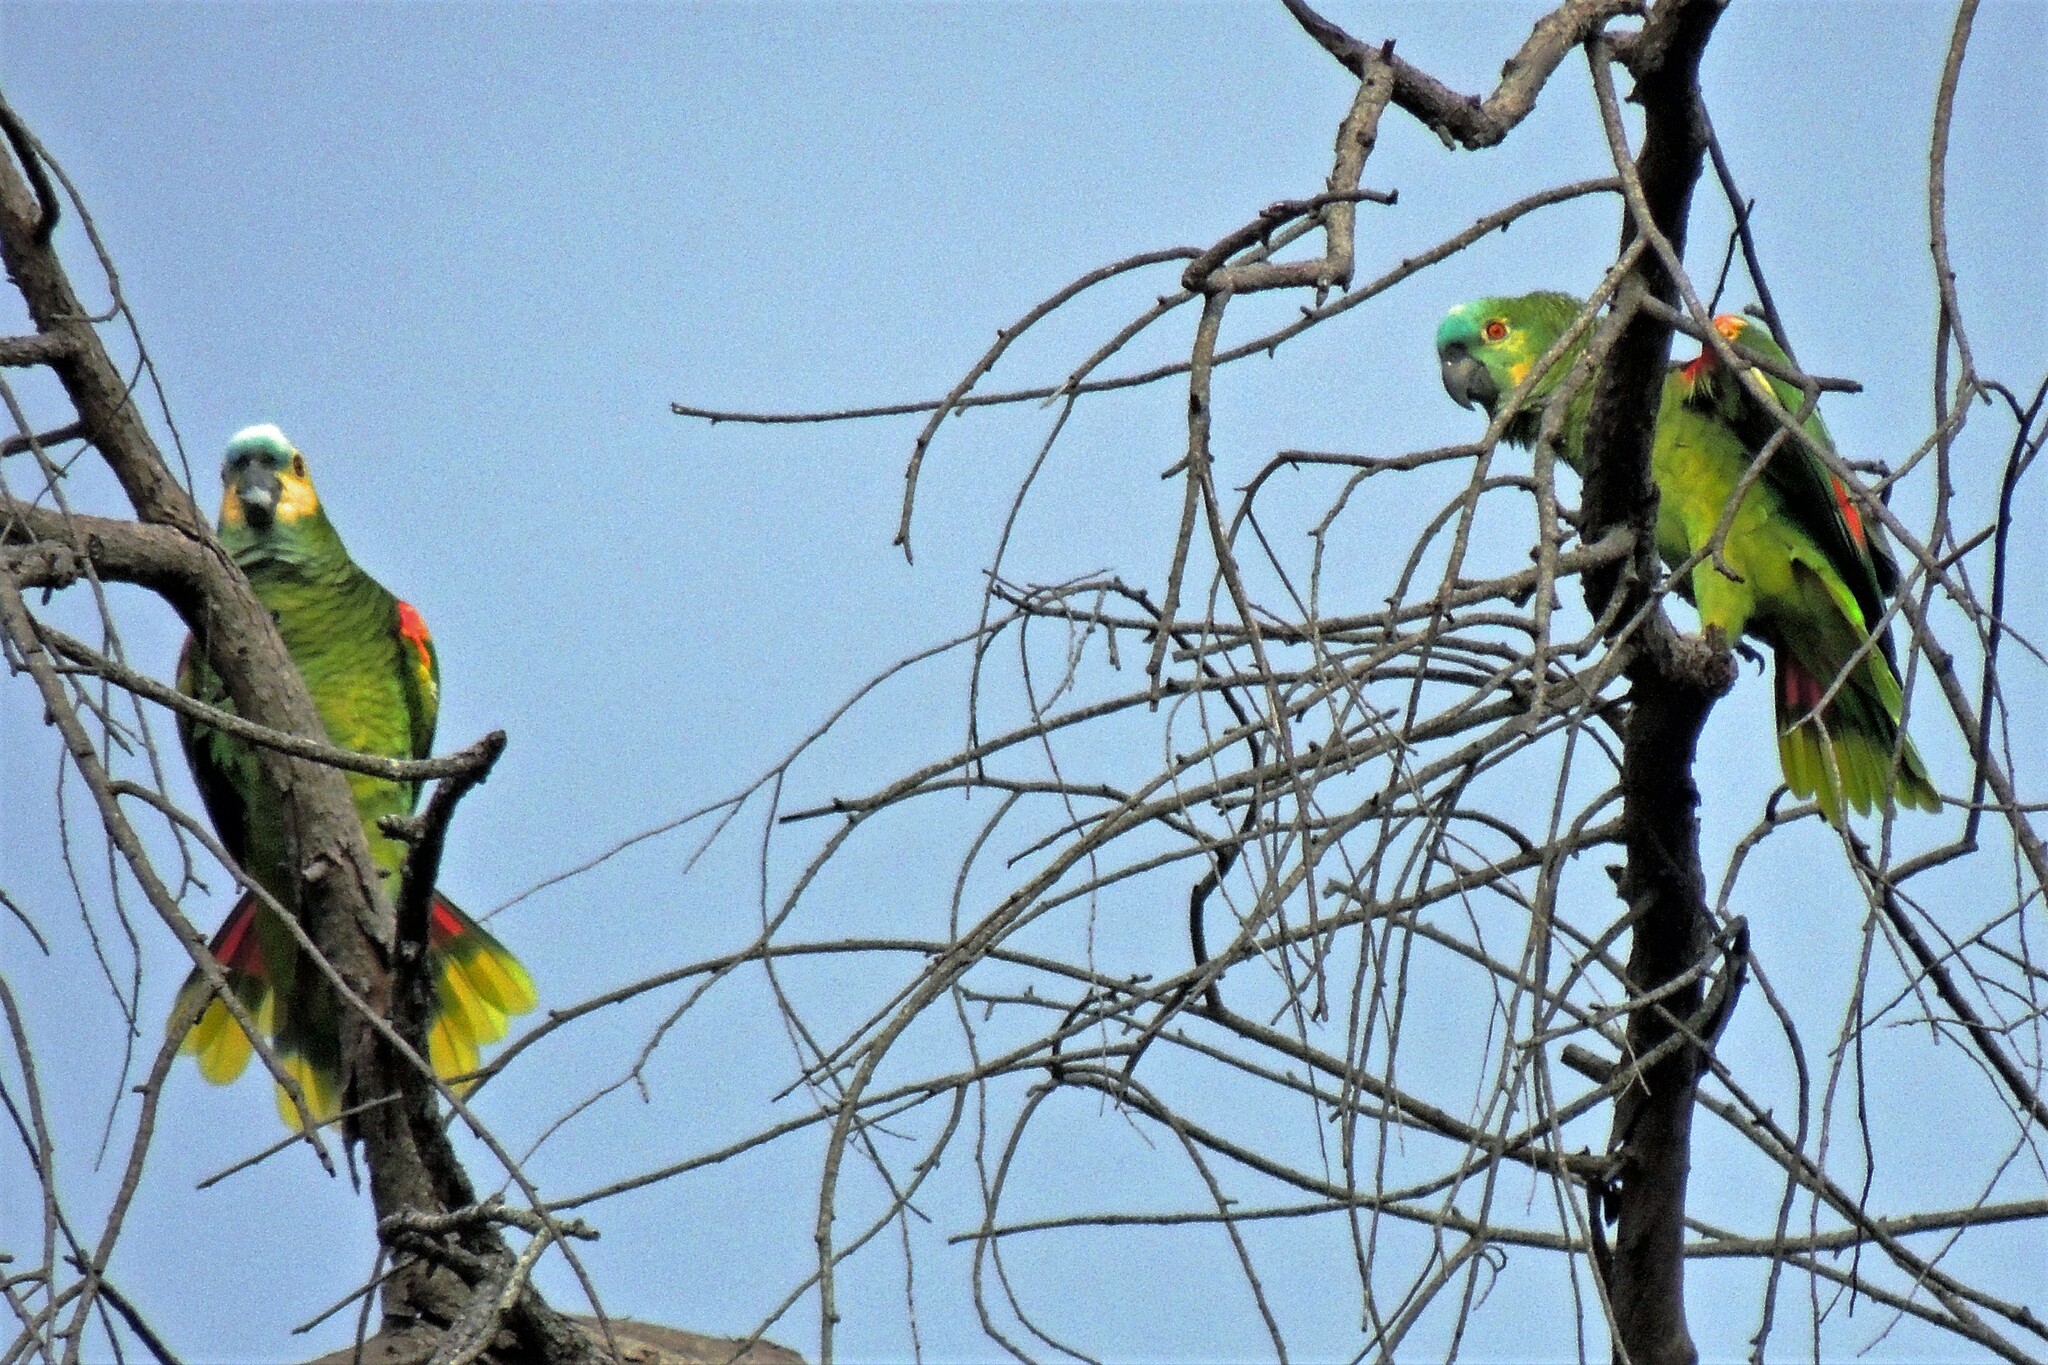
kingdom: Animalia
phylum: Chordata
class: Aves
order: Psittaciformes
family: Psittacidae
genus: Amazona
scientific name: Amazona aestiva
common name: Turquoise-fronted amazon
